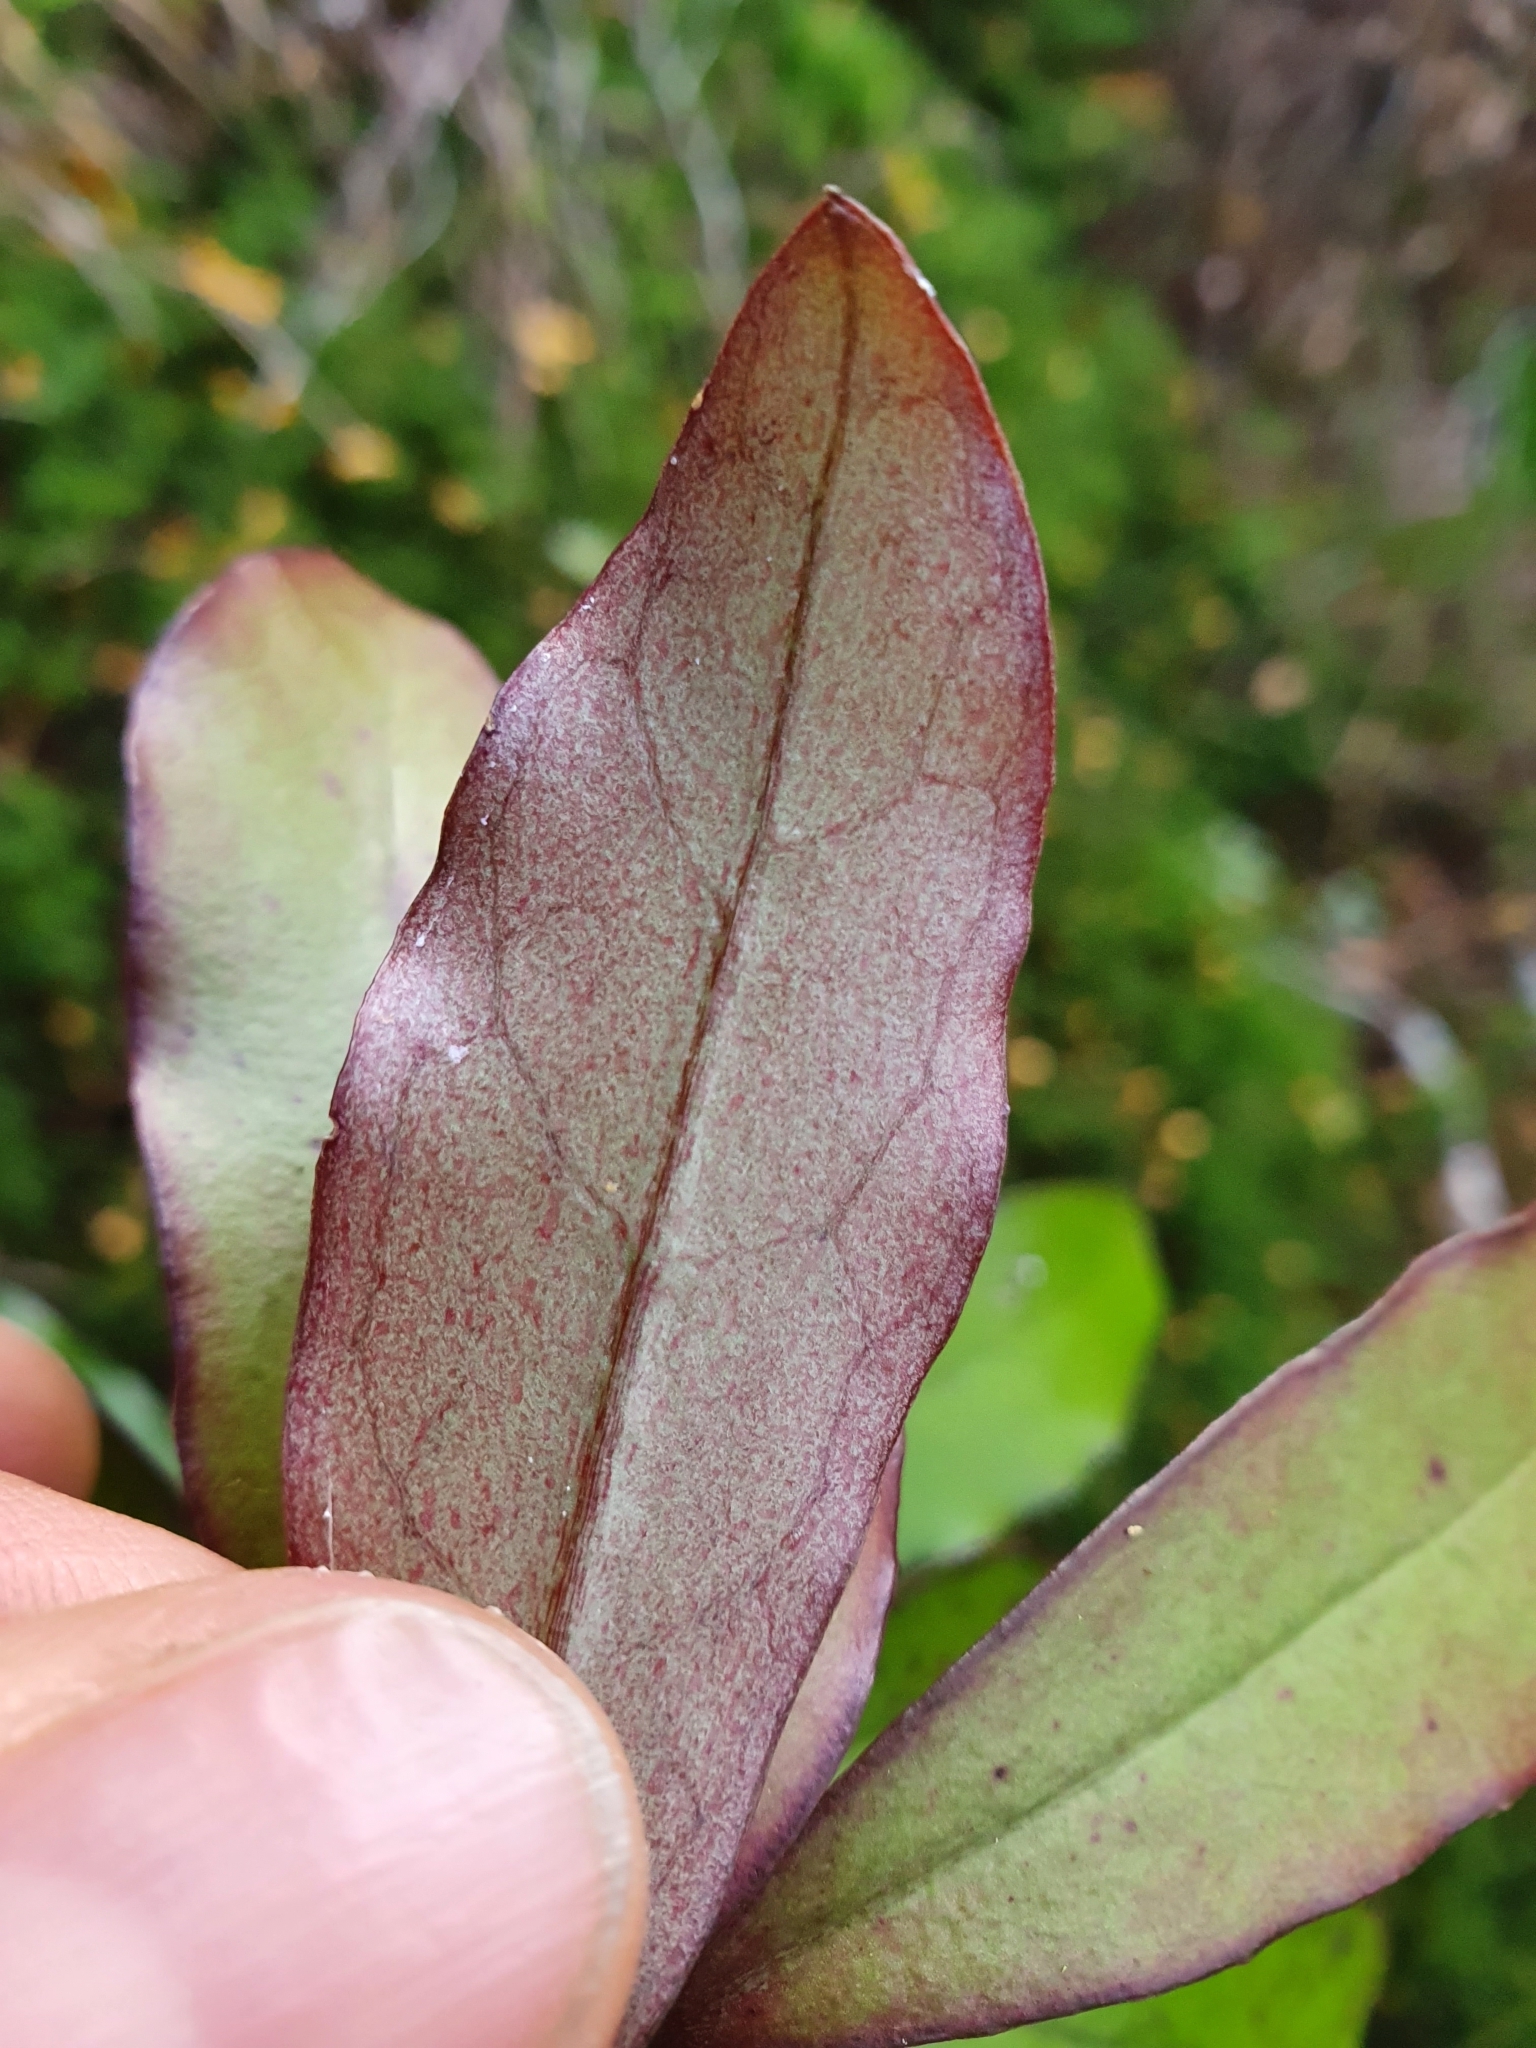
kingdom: Plantae
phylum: Tracheophyta
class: Magnoliopsida
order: Asterales
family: Alseuosmiaceae
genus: Alseuosmia
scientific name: Alseuosmia pusilla
